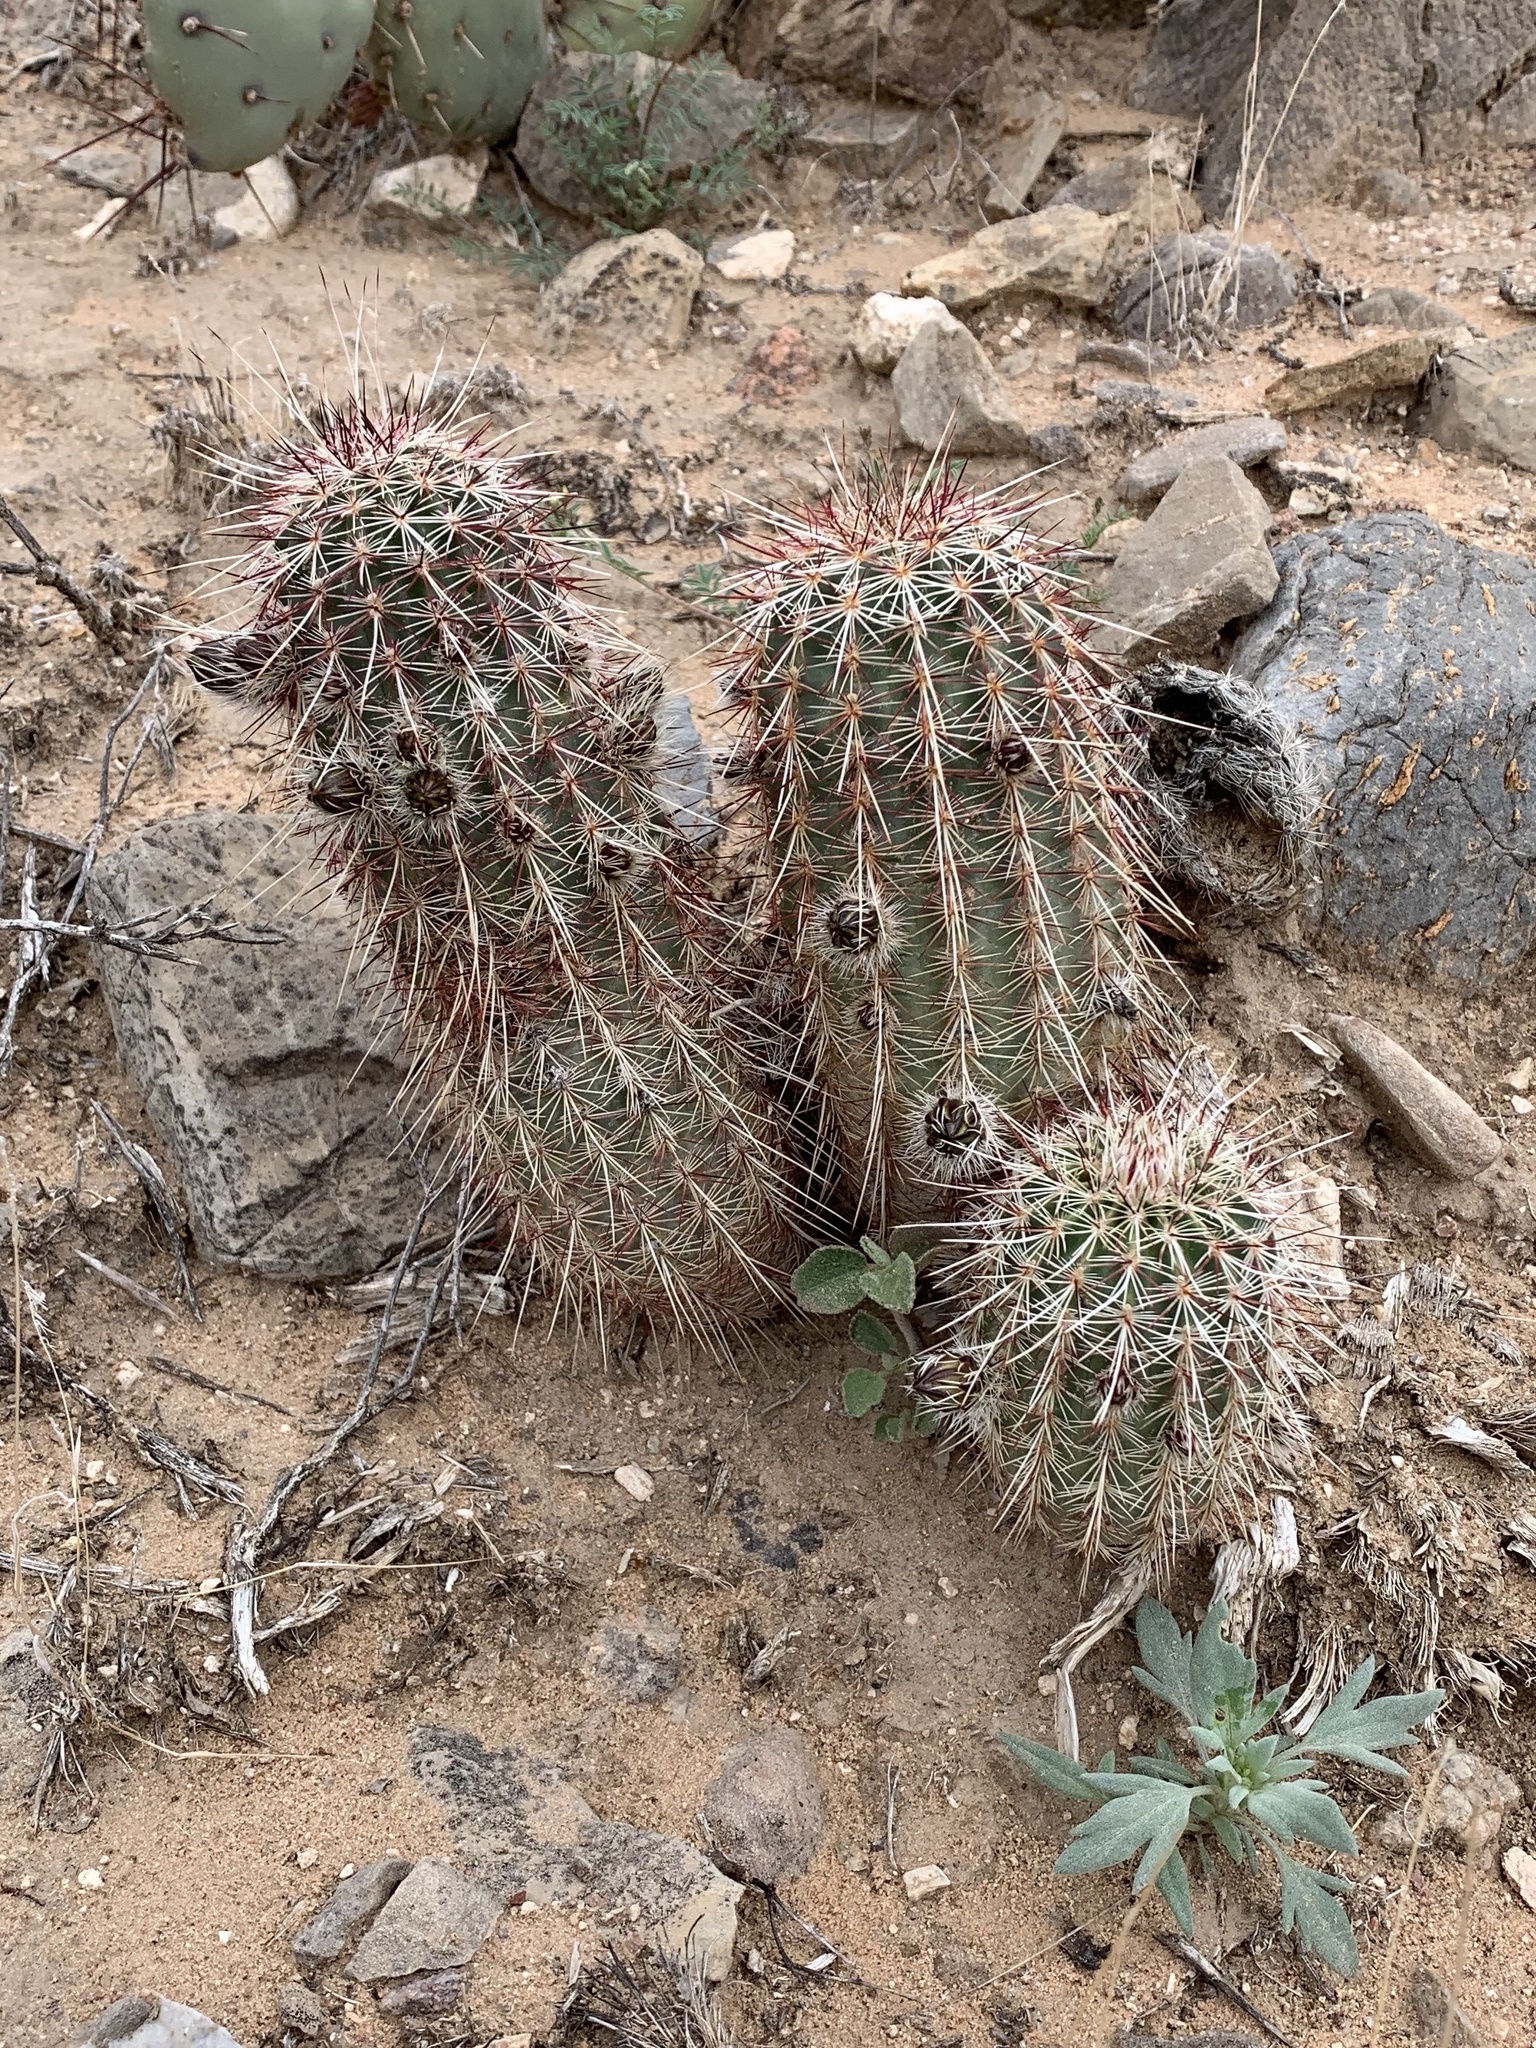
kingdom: Plantae
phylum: Tracheophyta
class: Magnoliopsida
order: Caryophyllales
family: Cactaceae
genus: Echinocereus
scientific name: Echinocereus viridiflorus
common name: Nylon hedgehog cactus
